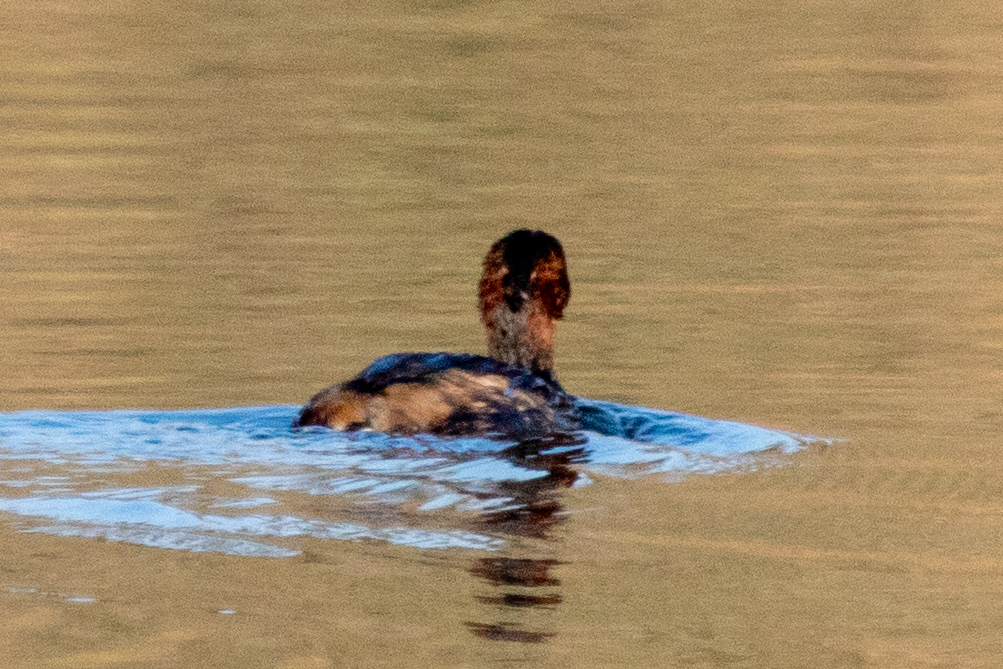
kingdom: Animalia
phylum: Chordata
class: Aves
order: Podicipediformes
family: Podicipedidae
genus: Tachybaptus
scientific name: Tachybaptus ruficollis
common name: Little grebe
